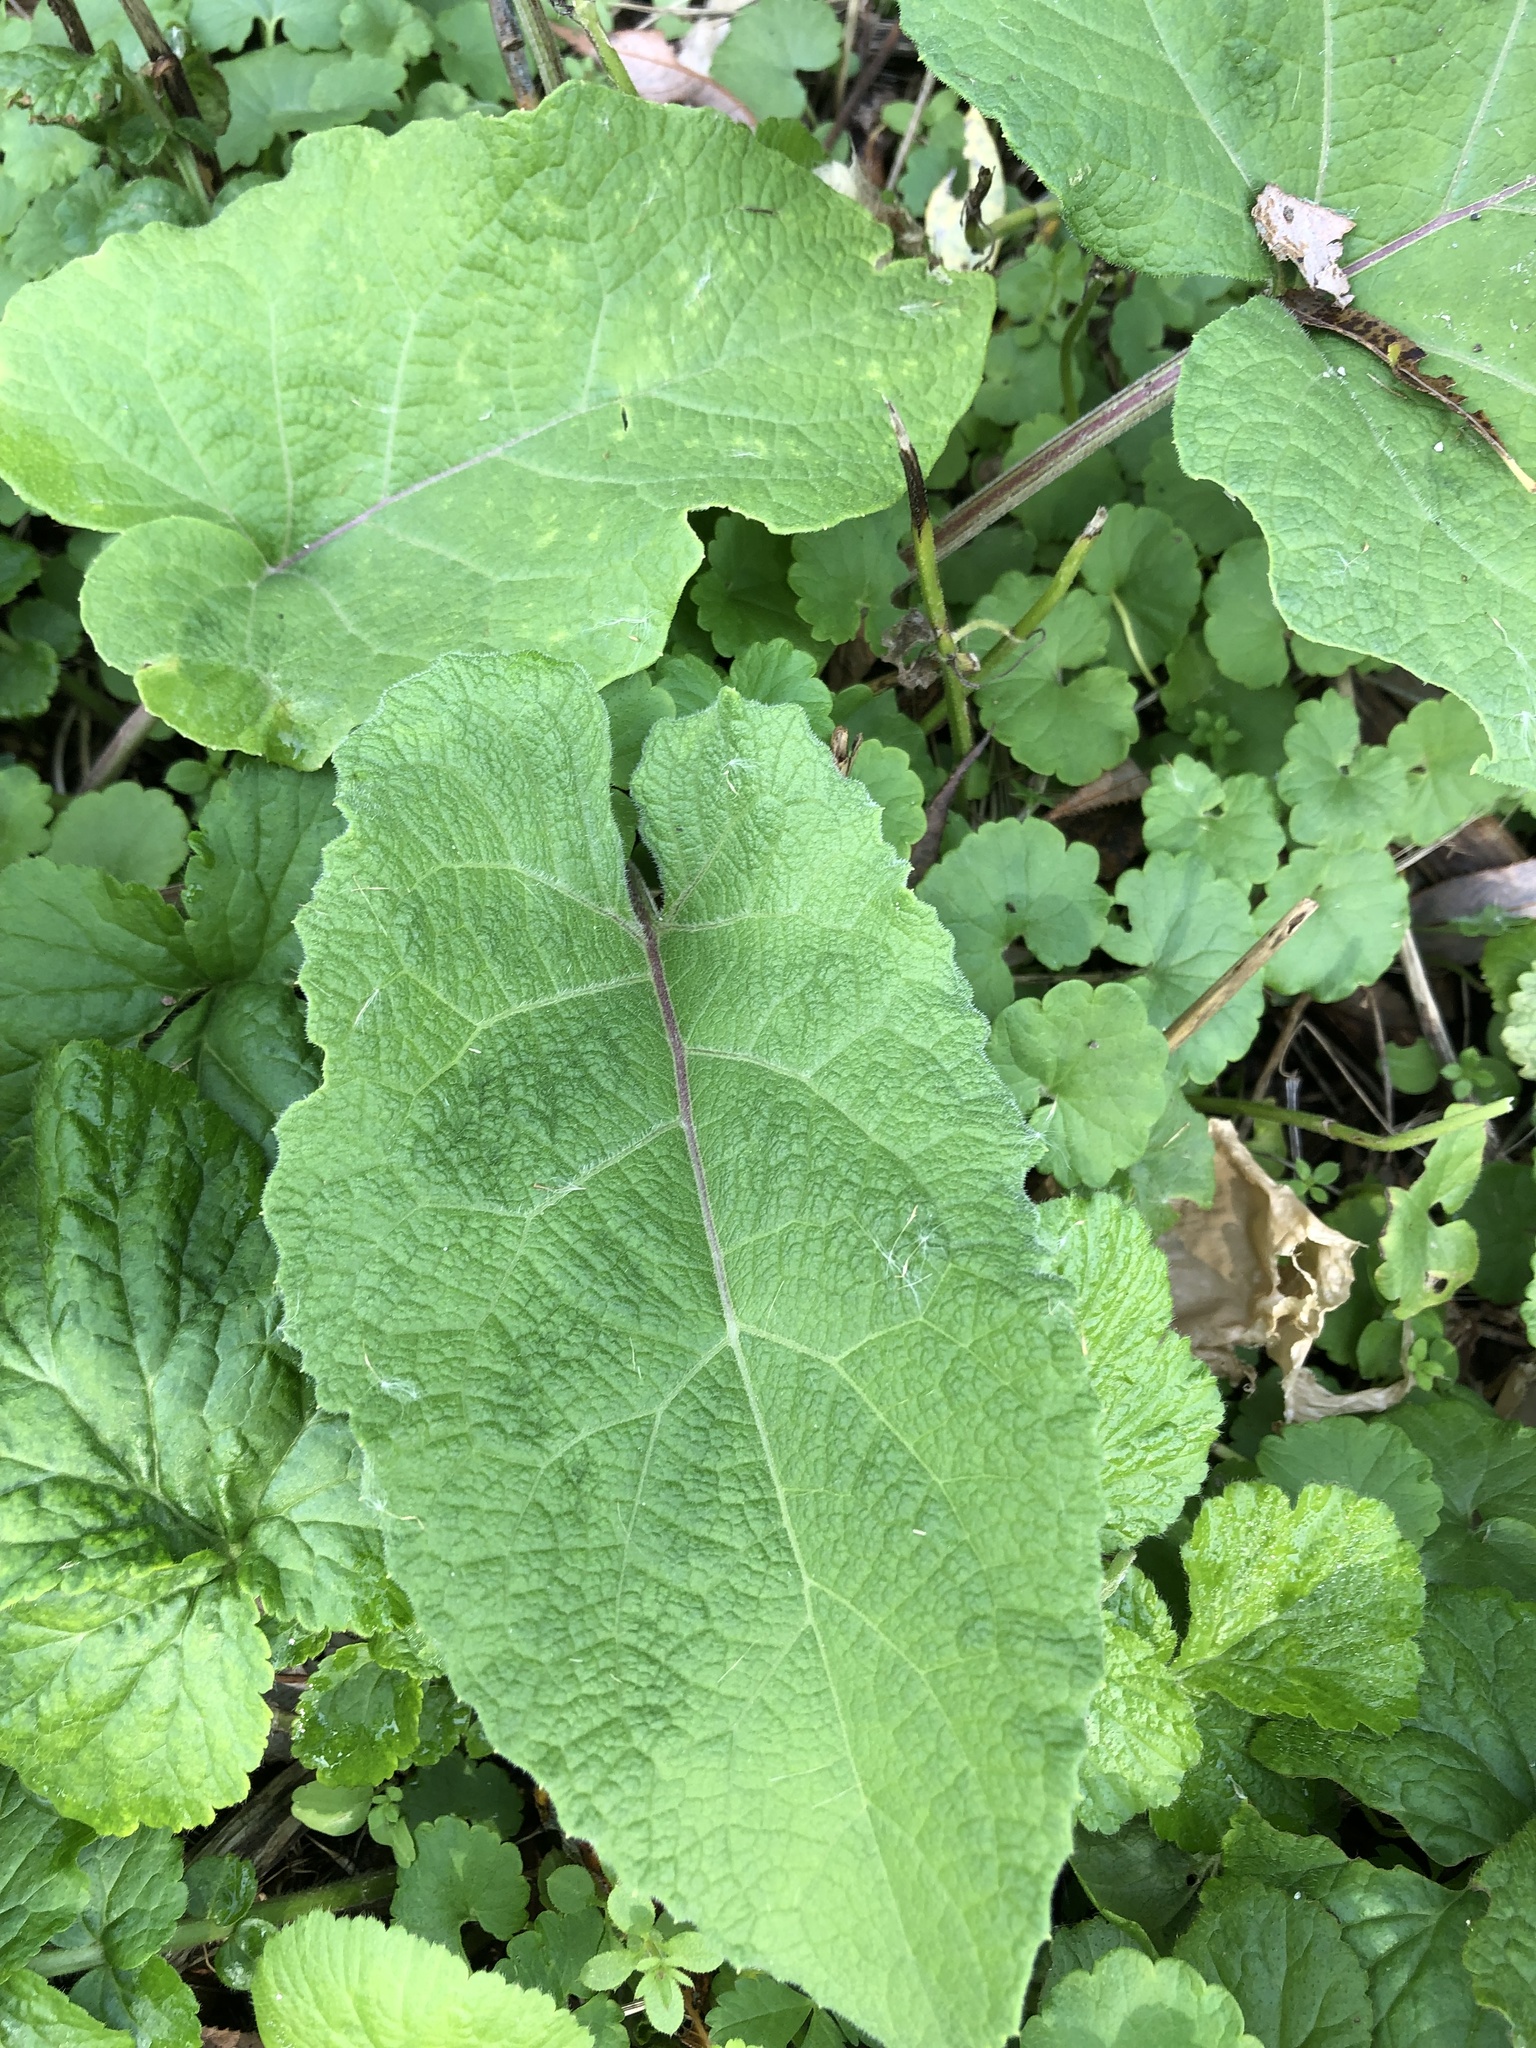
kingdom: Plantae
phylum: Tracheophyta
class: Magnoliopsida
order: Asterales
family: Asteraceae
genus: Arctium
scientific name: Arctium
